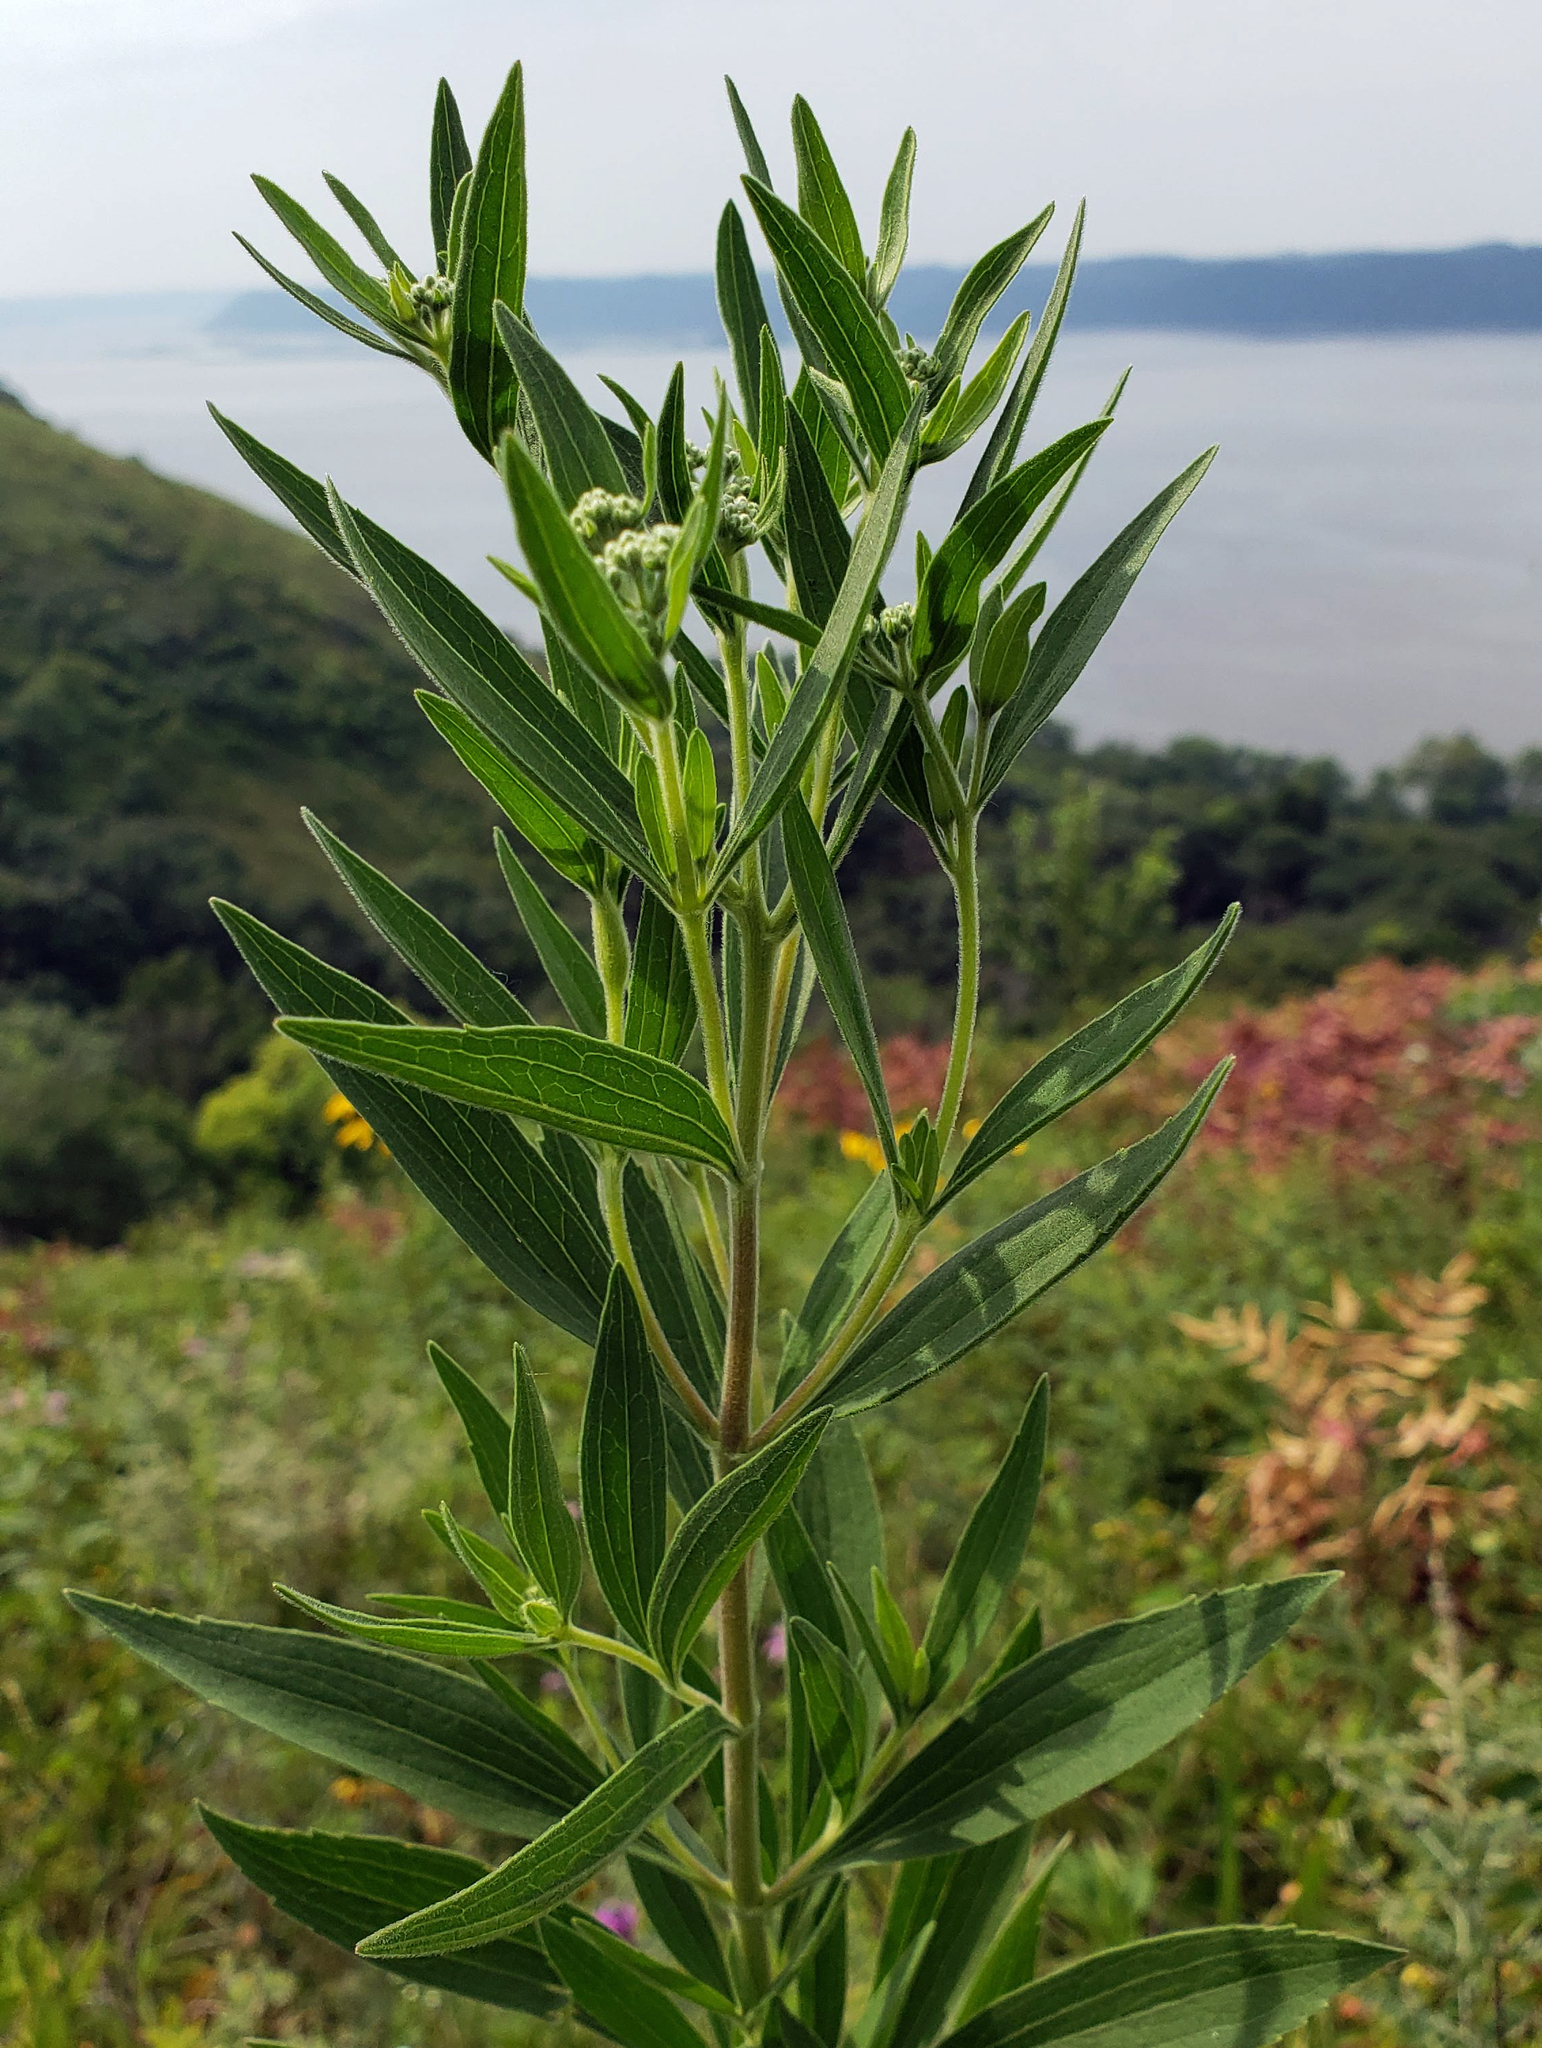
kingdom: Plantae
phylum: Tracheophyta
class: Magnoliopsida
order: Asterales
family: Asteraceae
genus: Eupatorium
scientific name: Eupatorium altissimum
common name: Tall thoroughwort
